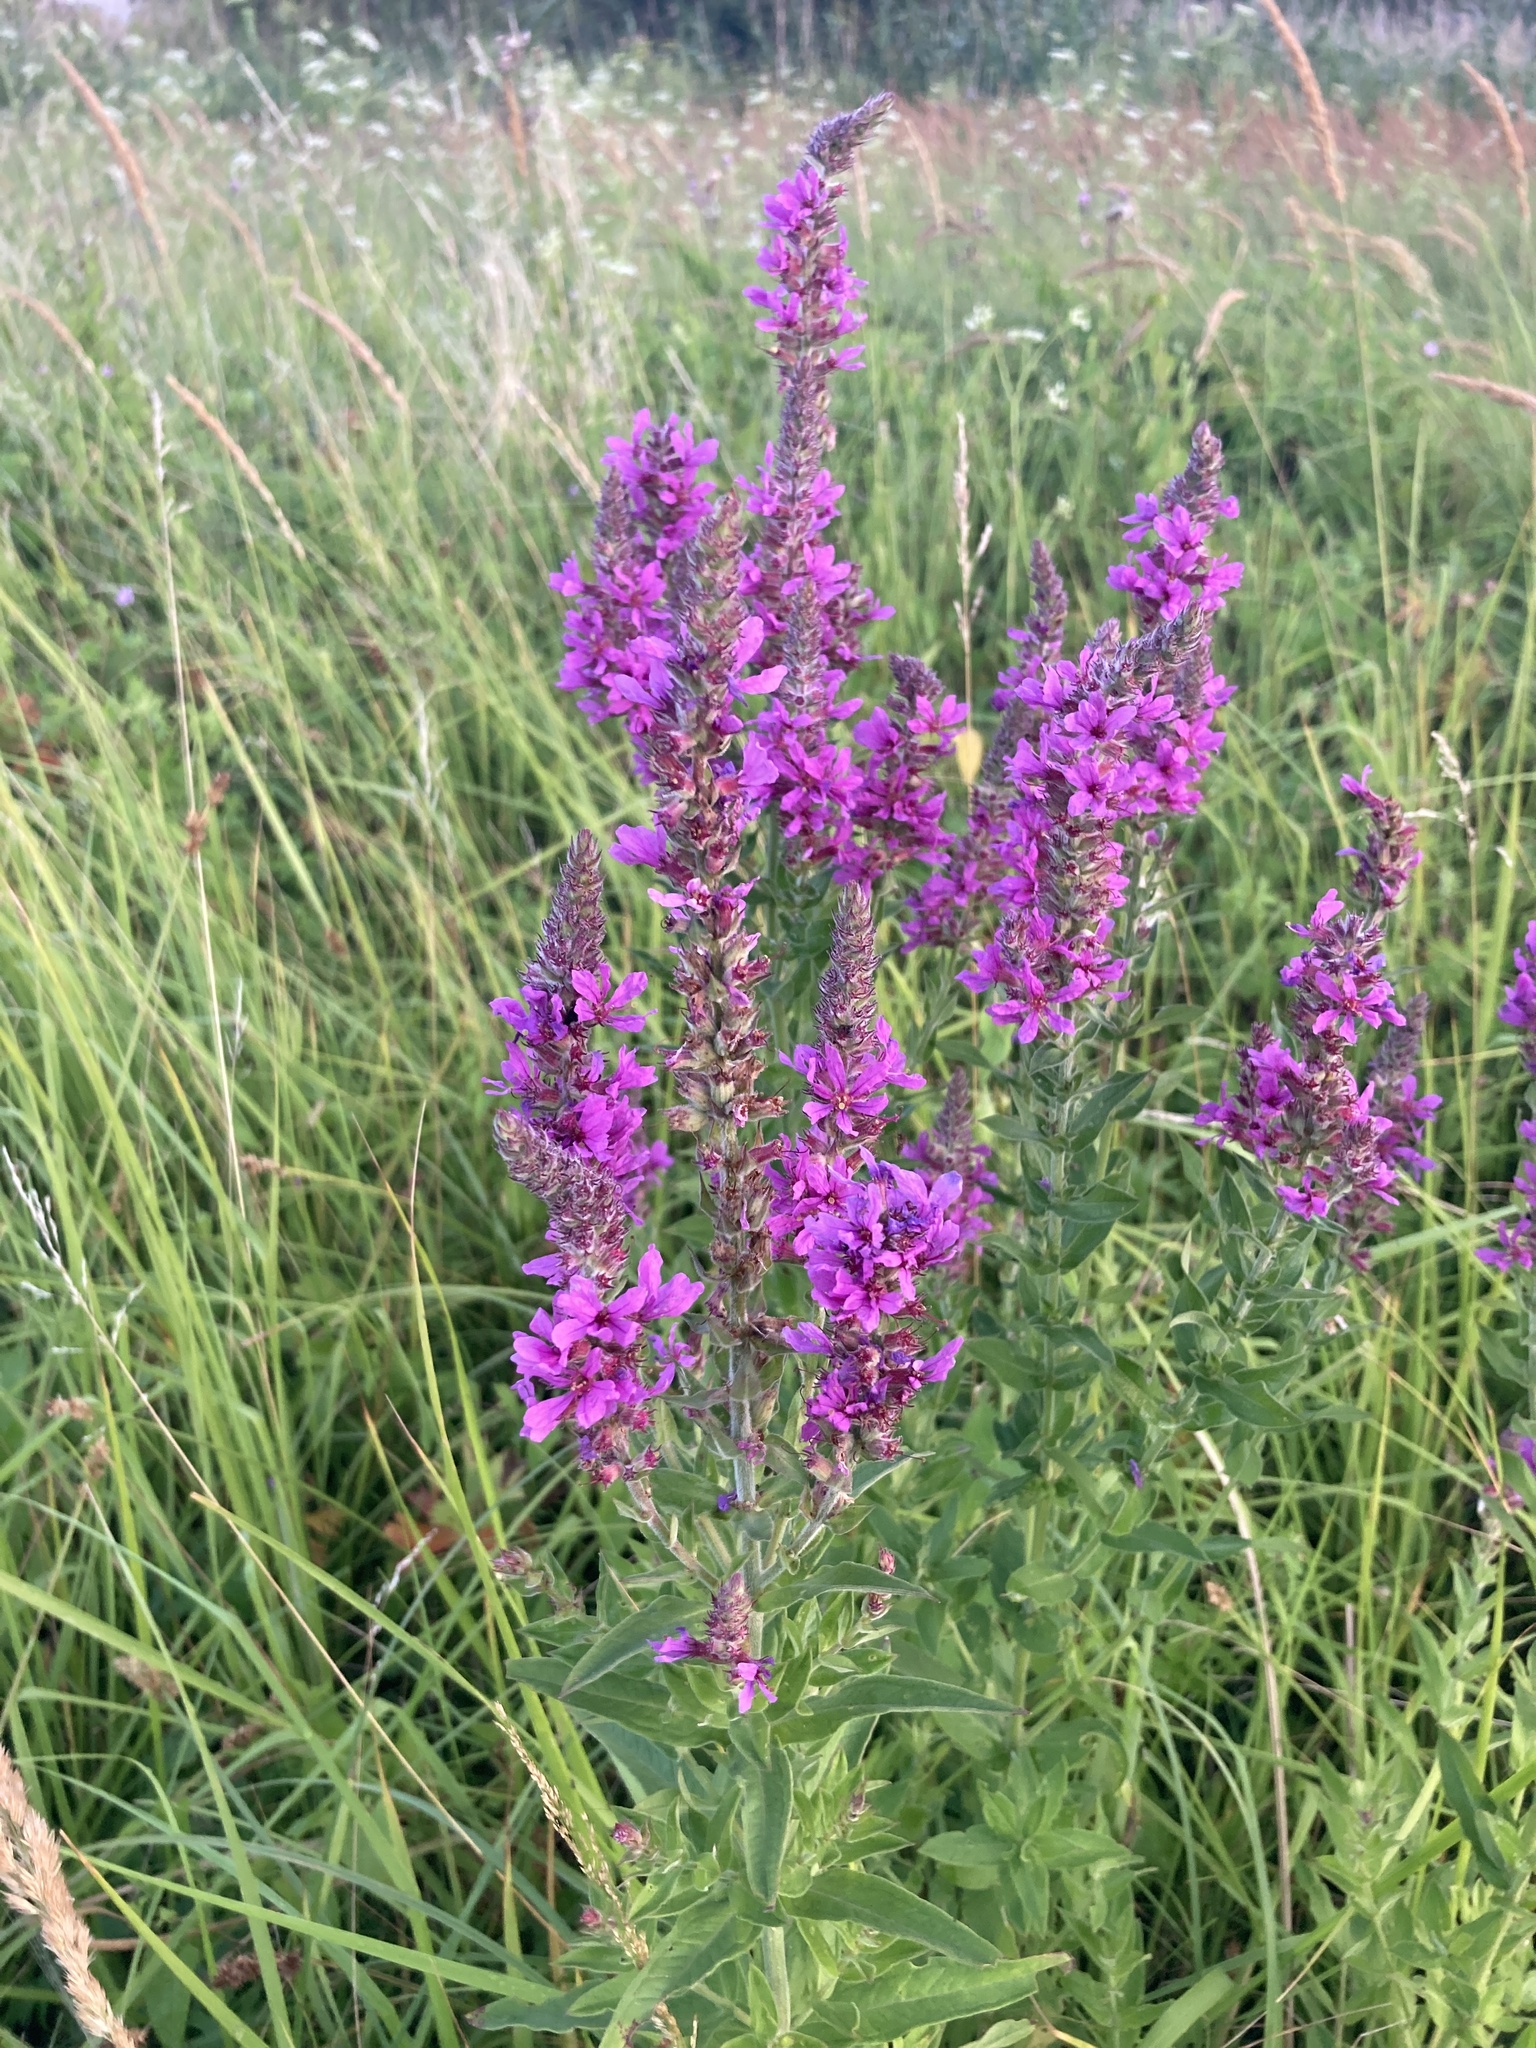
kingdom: Plantae
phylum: Tracheophyta
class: Magnoliopsida
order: Myrtales
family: Lythraceae
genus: Lythrum
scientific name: Lythrum salicaria
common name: Purple loosestrife
